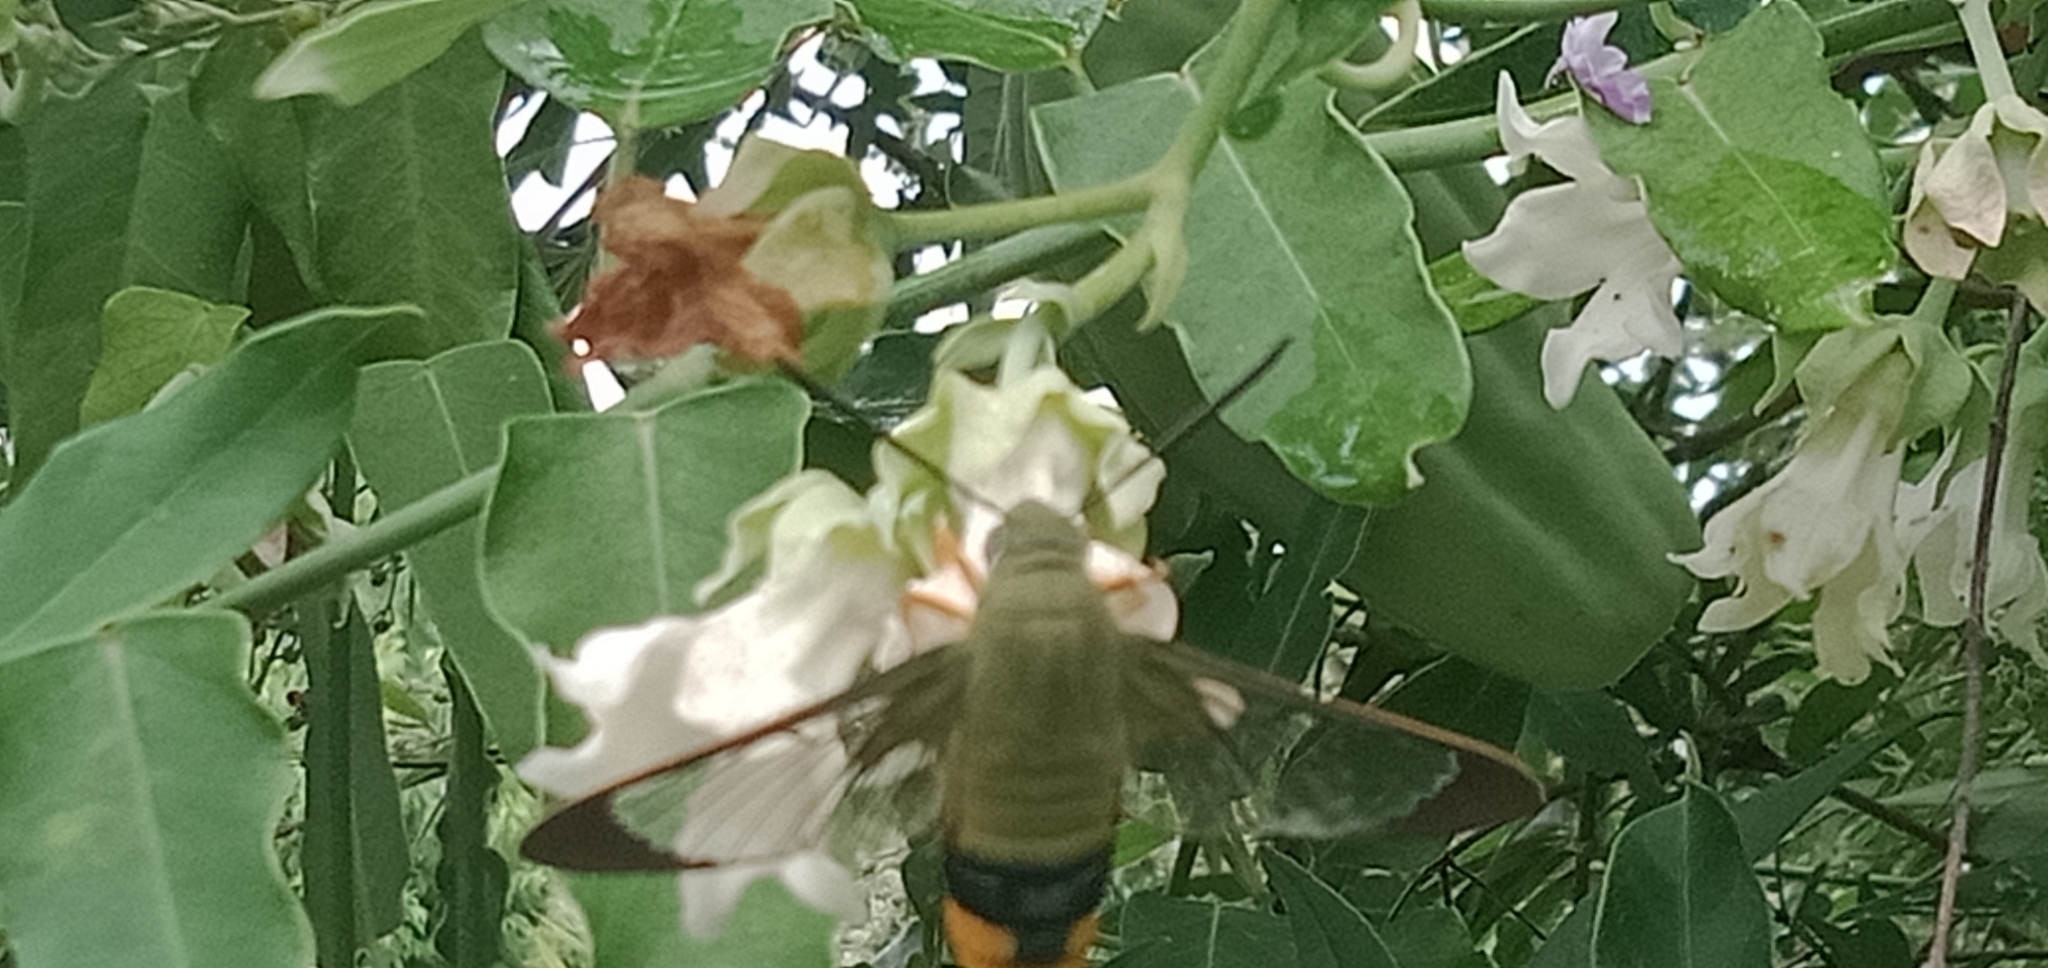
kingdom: Animalia
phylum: Arthropoda
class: Insecta
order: Lepidoptera
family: Sphingidae
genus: Cephonodes
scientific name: Cephonodes kingii
